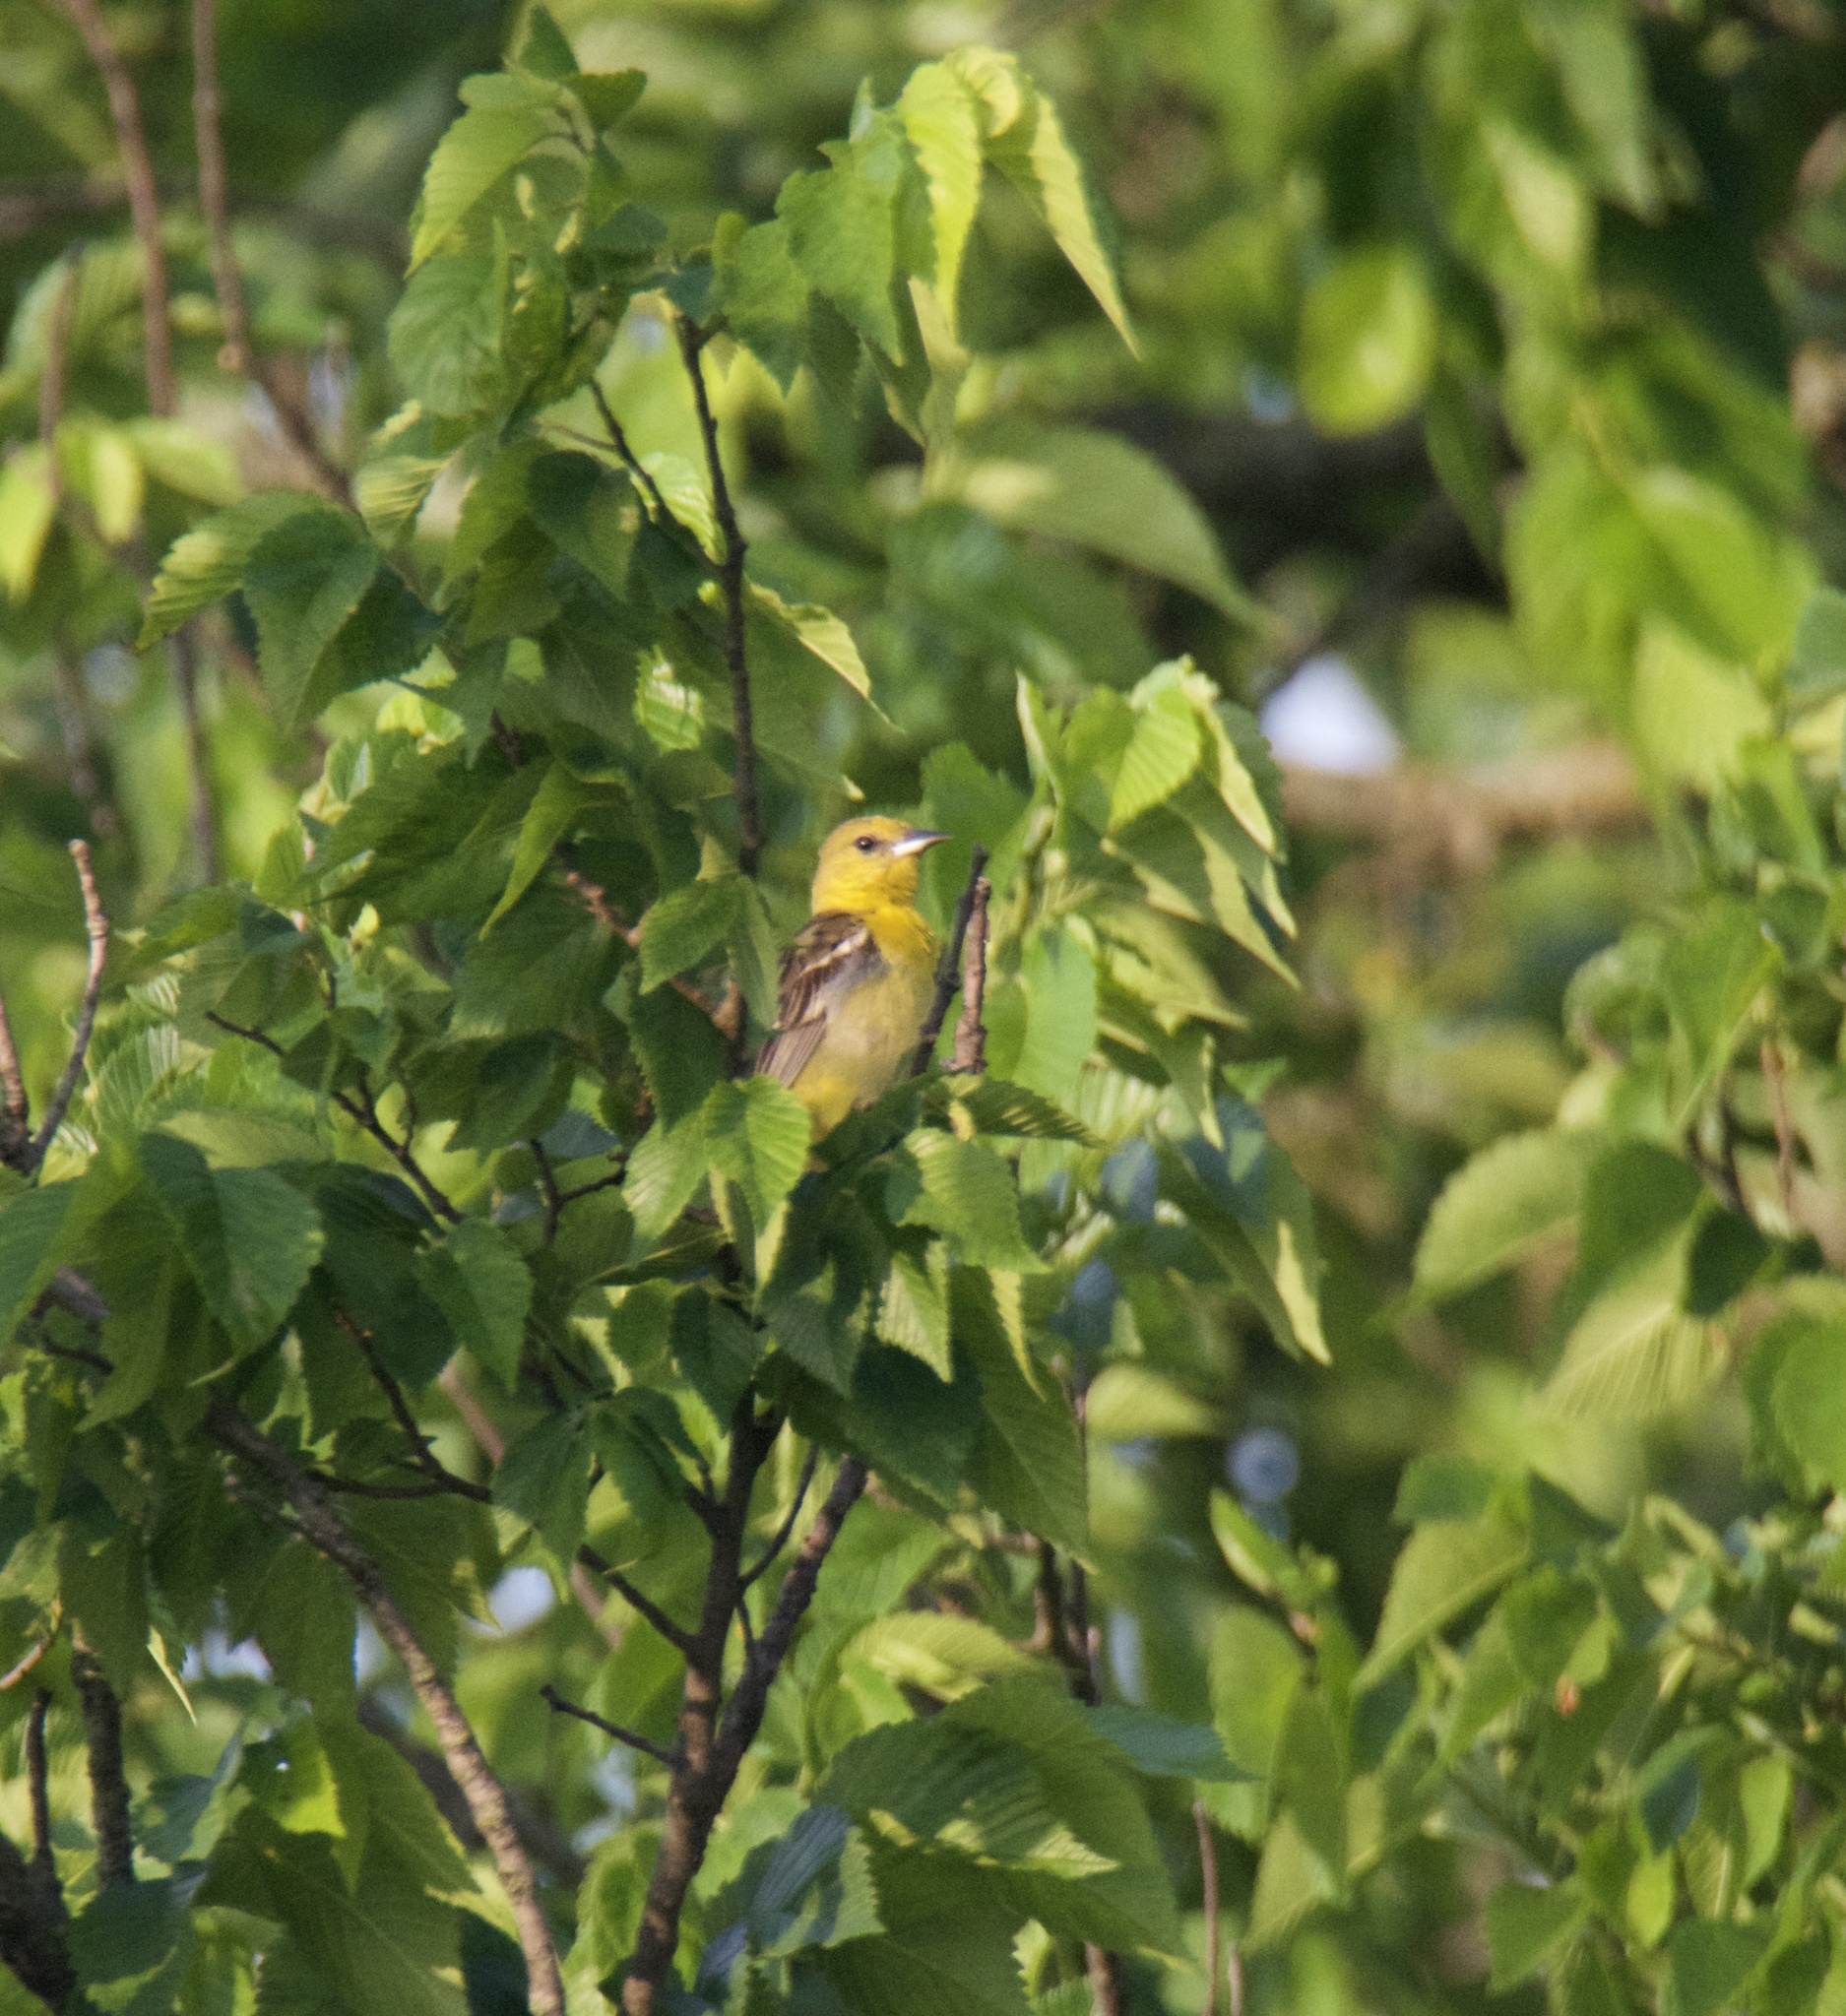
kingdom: Animalia
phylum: Chordata
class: Aves
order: Passeriformes
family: Icteridae
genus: Icterus
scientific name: Icterus spurius
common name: Orchard oriole
